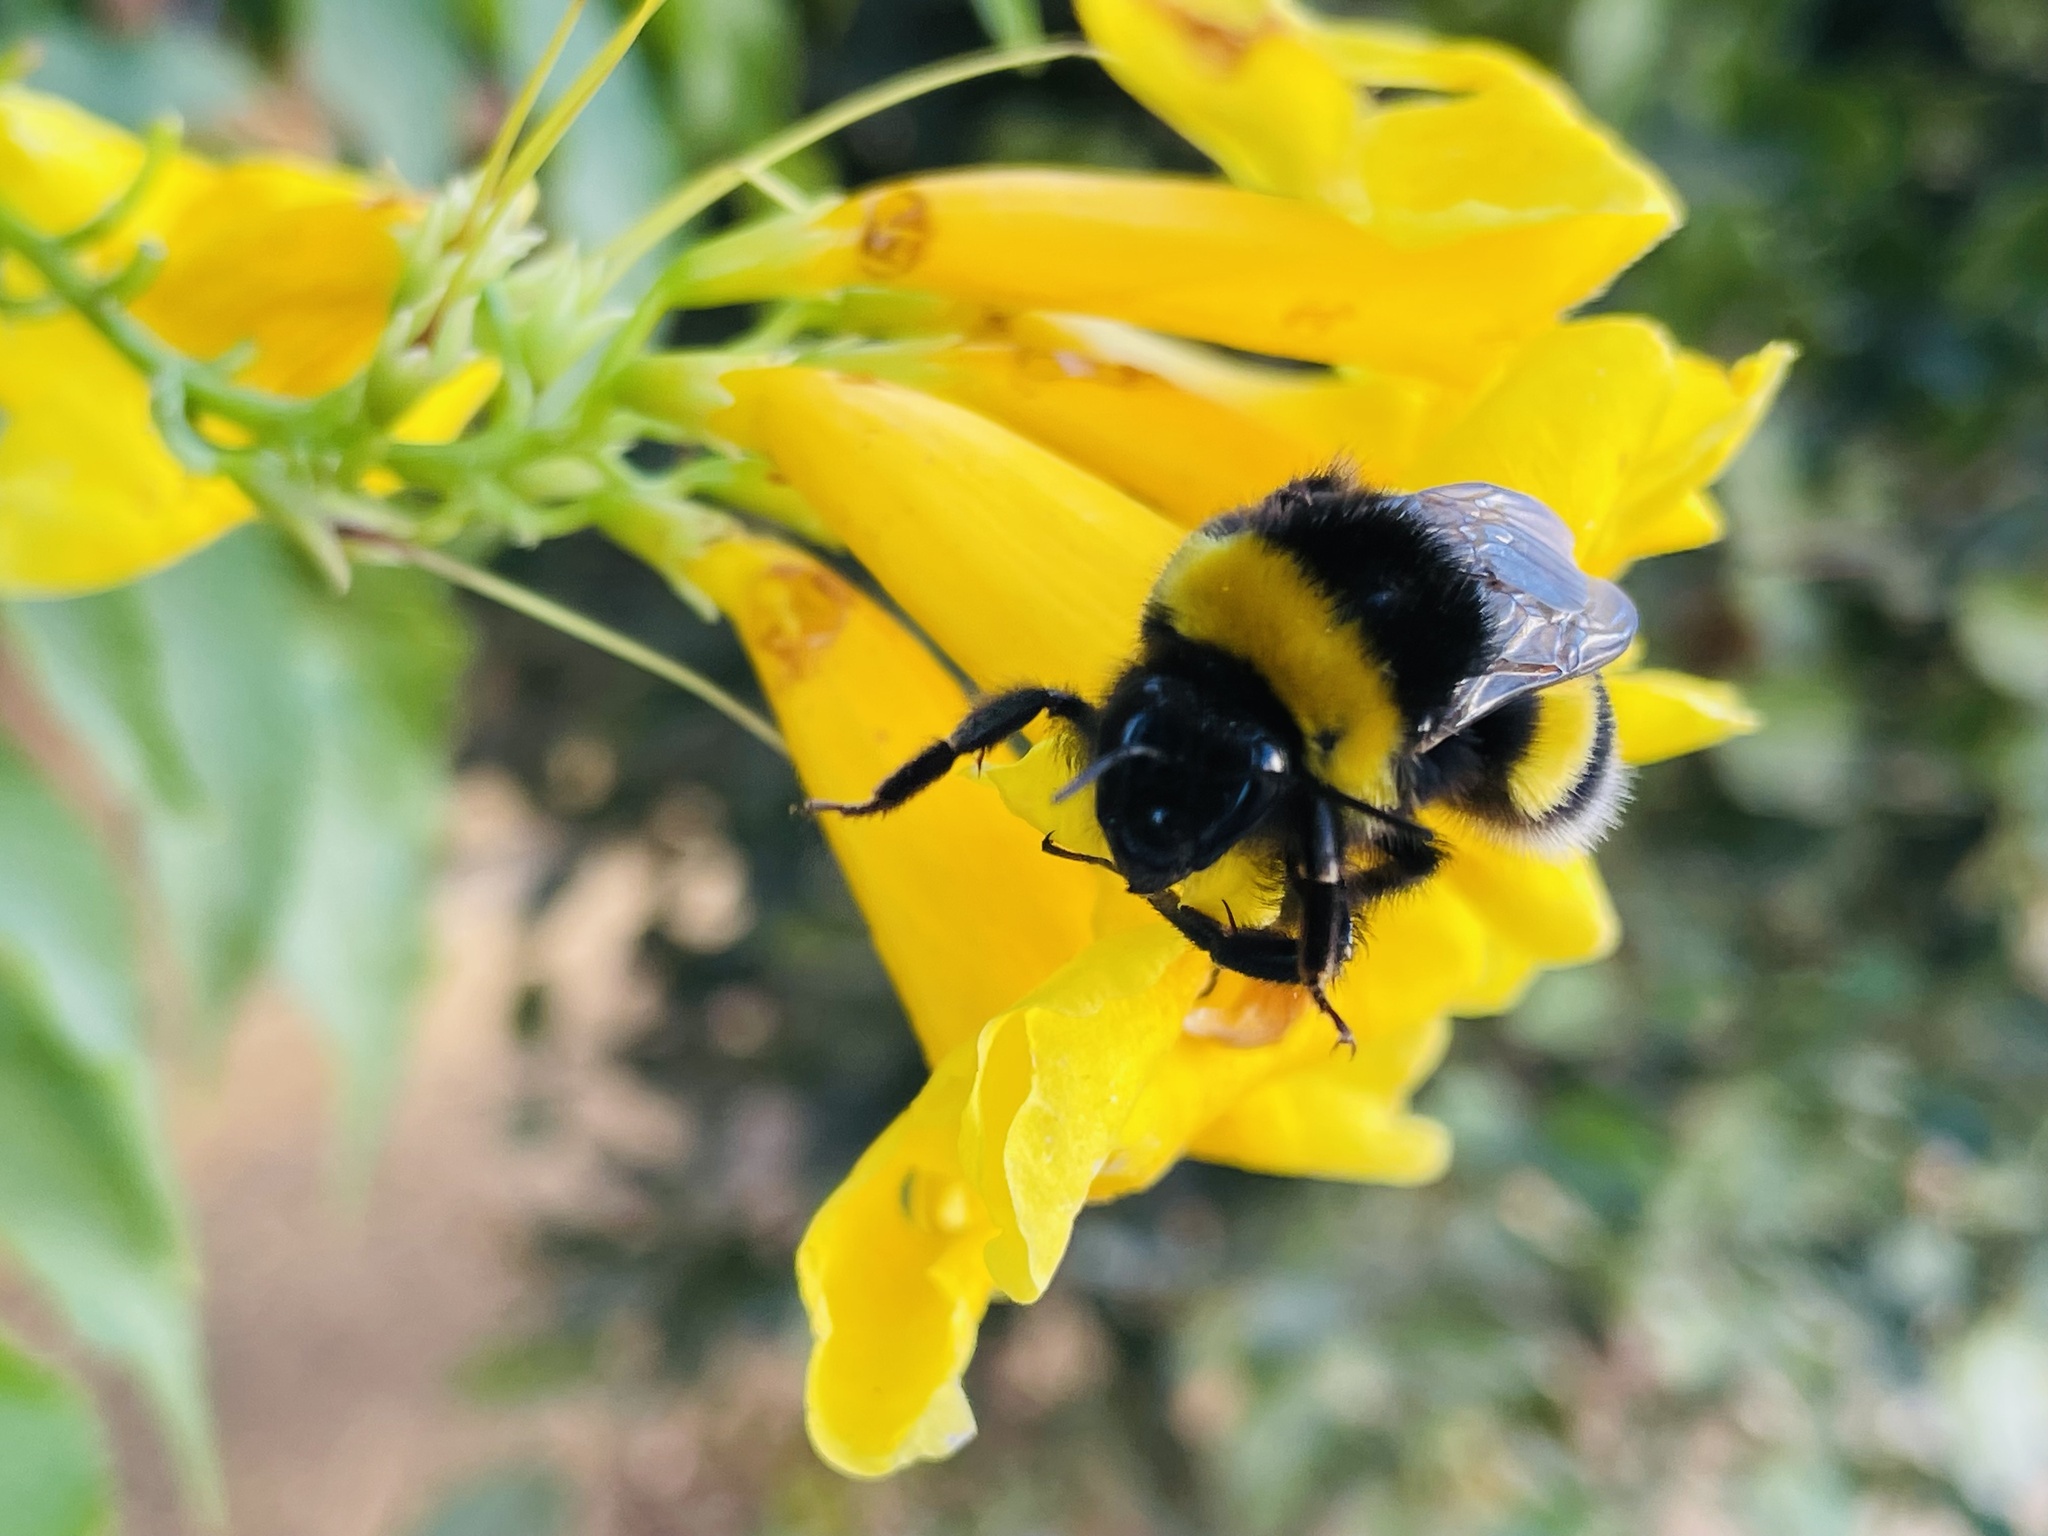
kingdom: Animalia
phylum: Arthropoda
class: Insecta
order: Hymenoptera
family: Apidae
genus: Bombus
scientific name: Bombus terrestris
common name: Buff-tailed bumblebee
